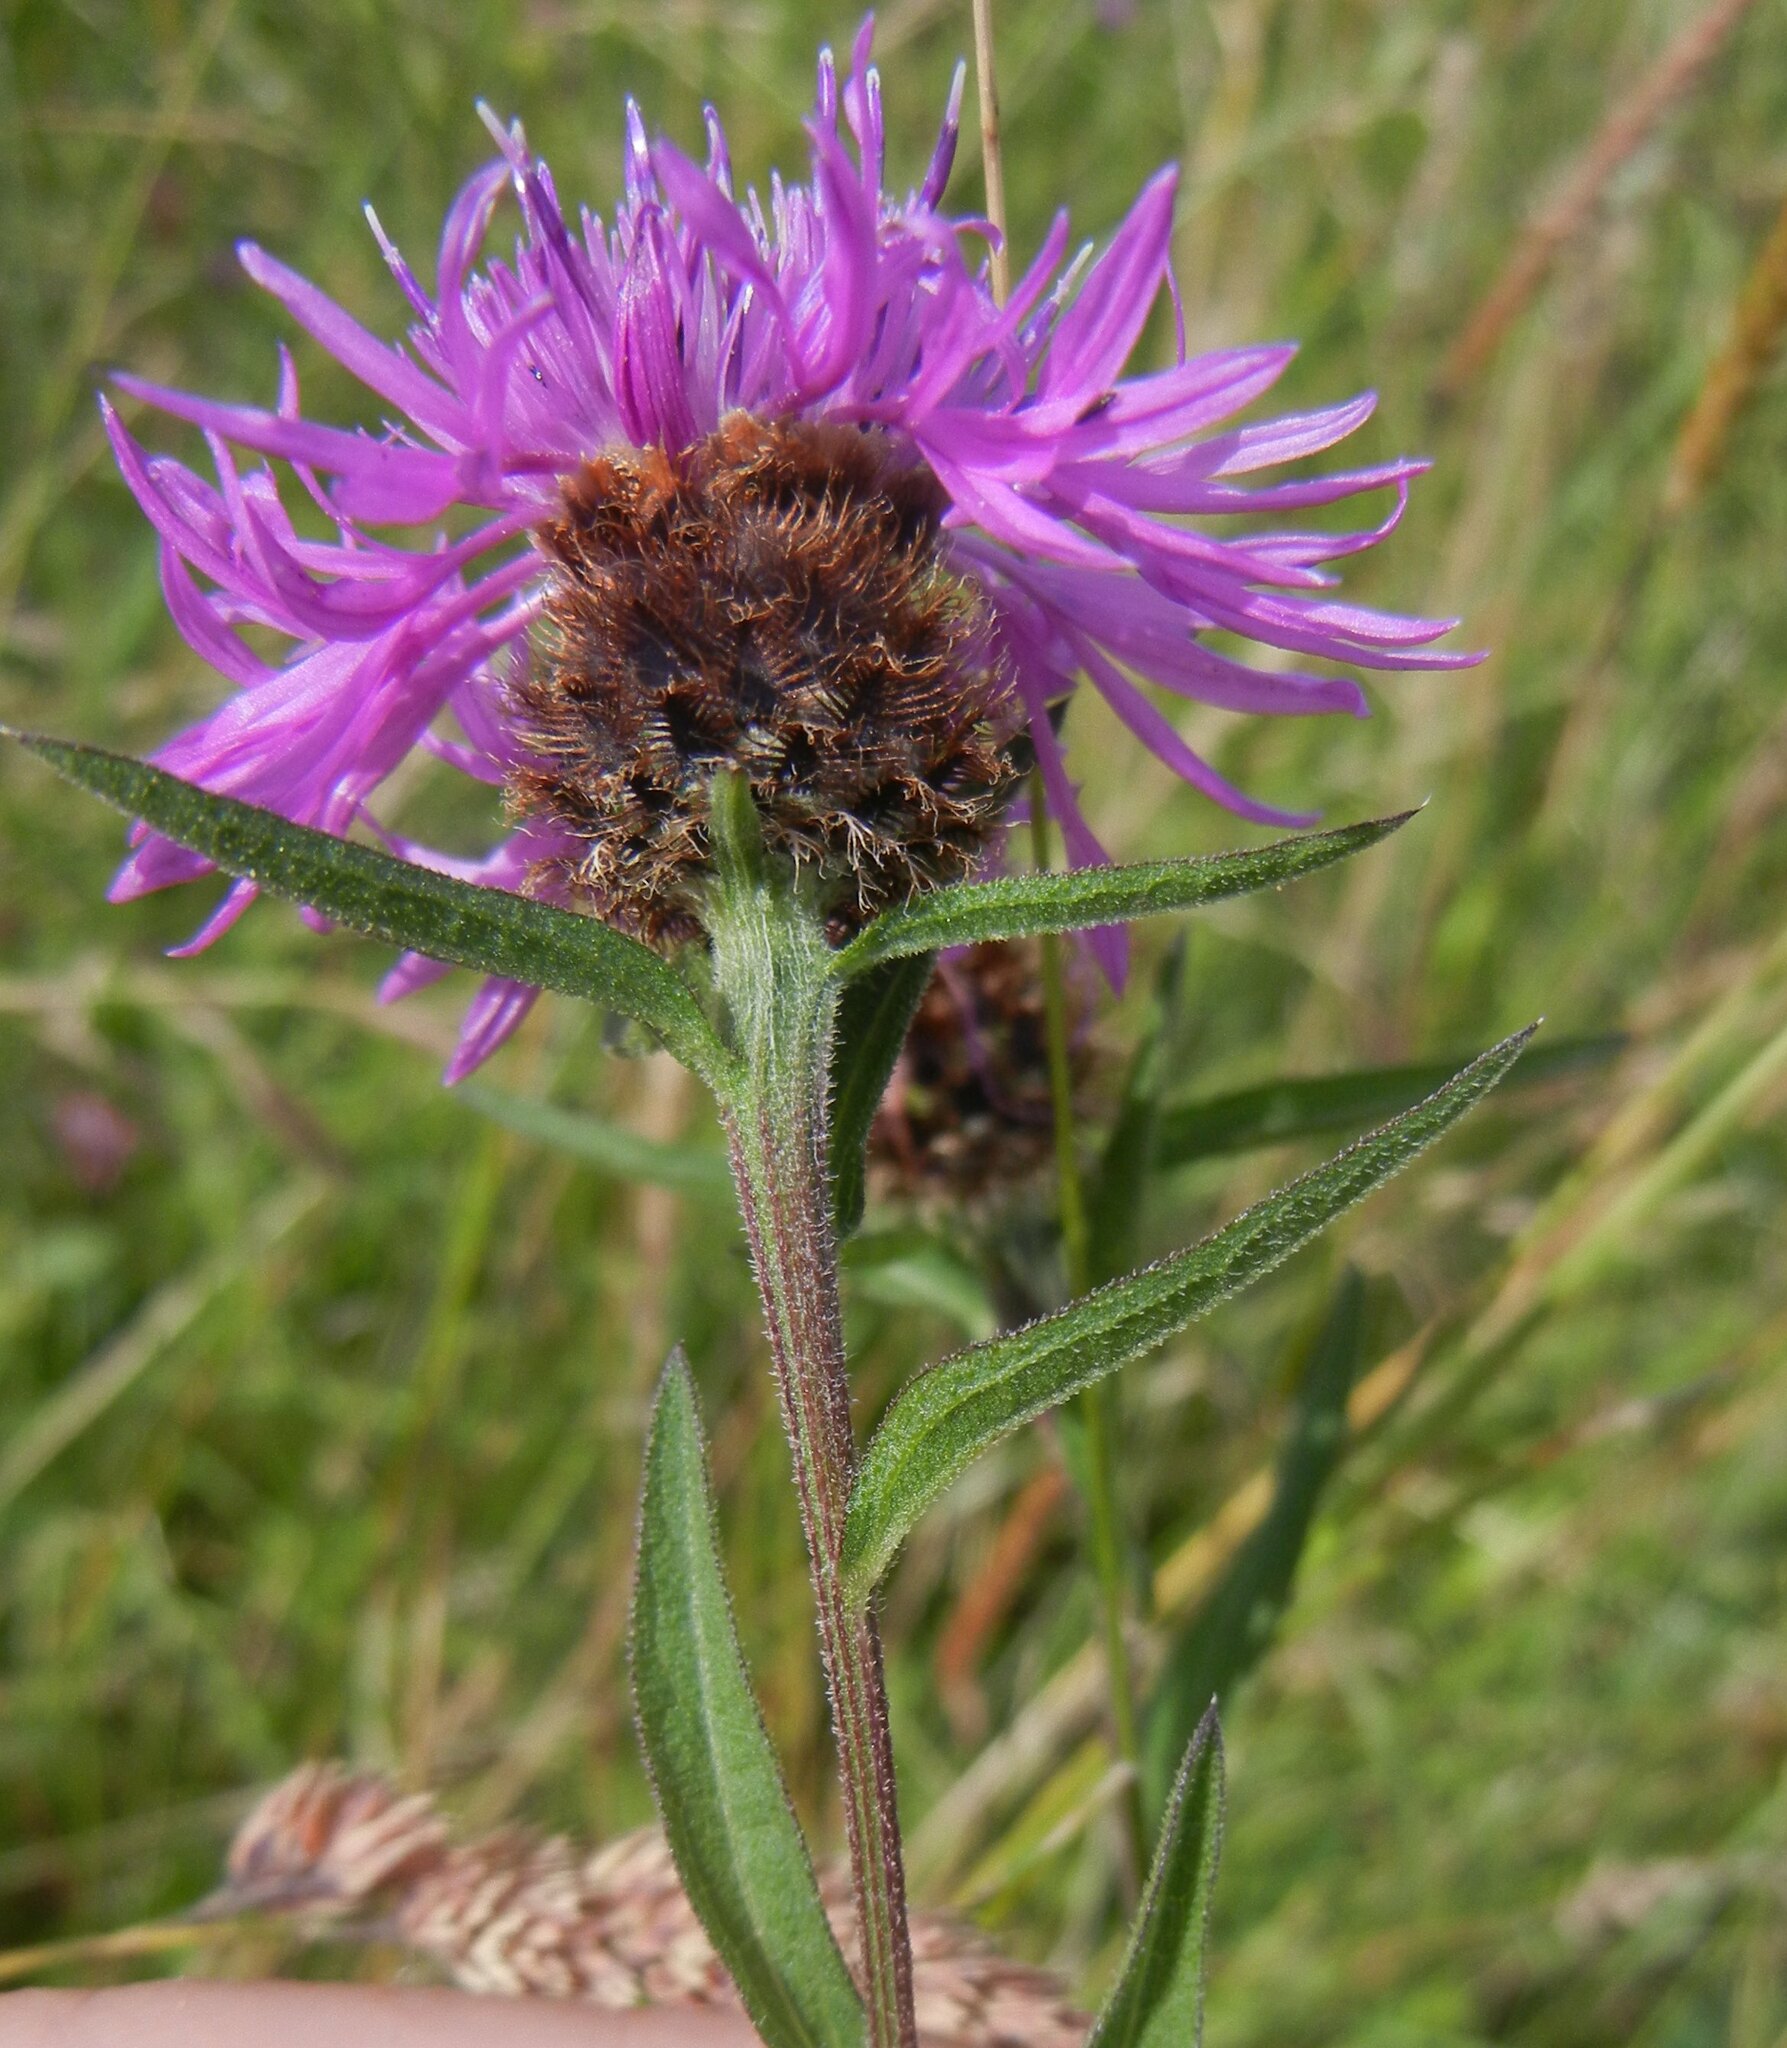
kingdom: Plantae
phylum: Tracheophyta
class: Magnoliopsida
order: Asterales
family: Asteraceae
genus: Centaurea
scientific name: Centaurea nigra
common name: Lesser knapweed
